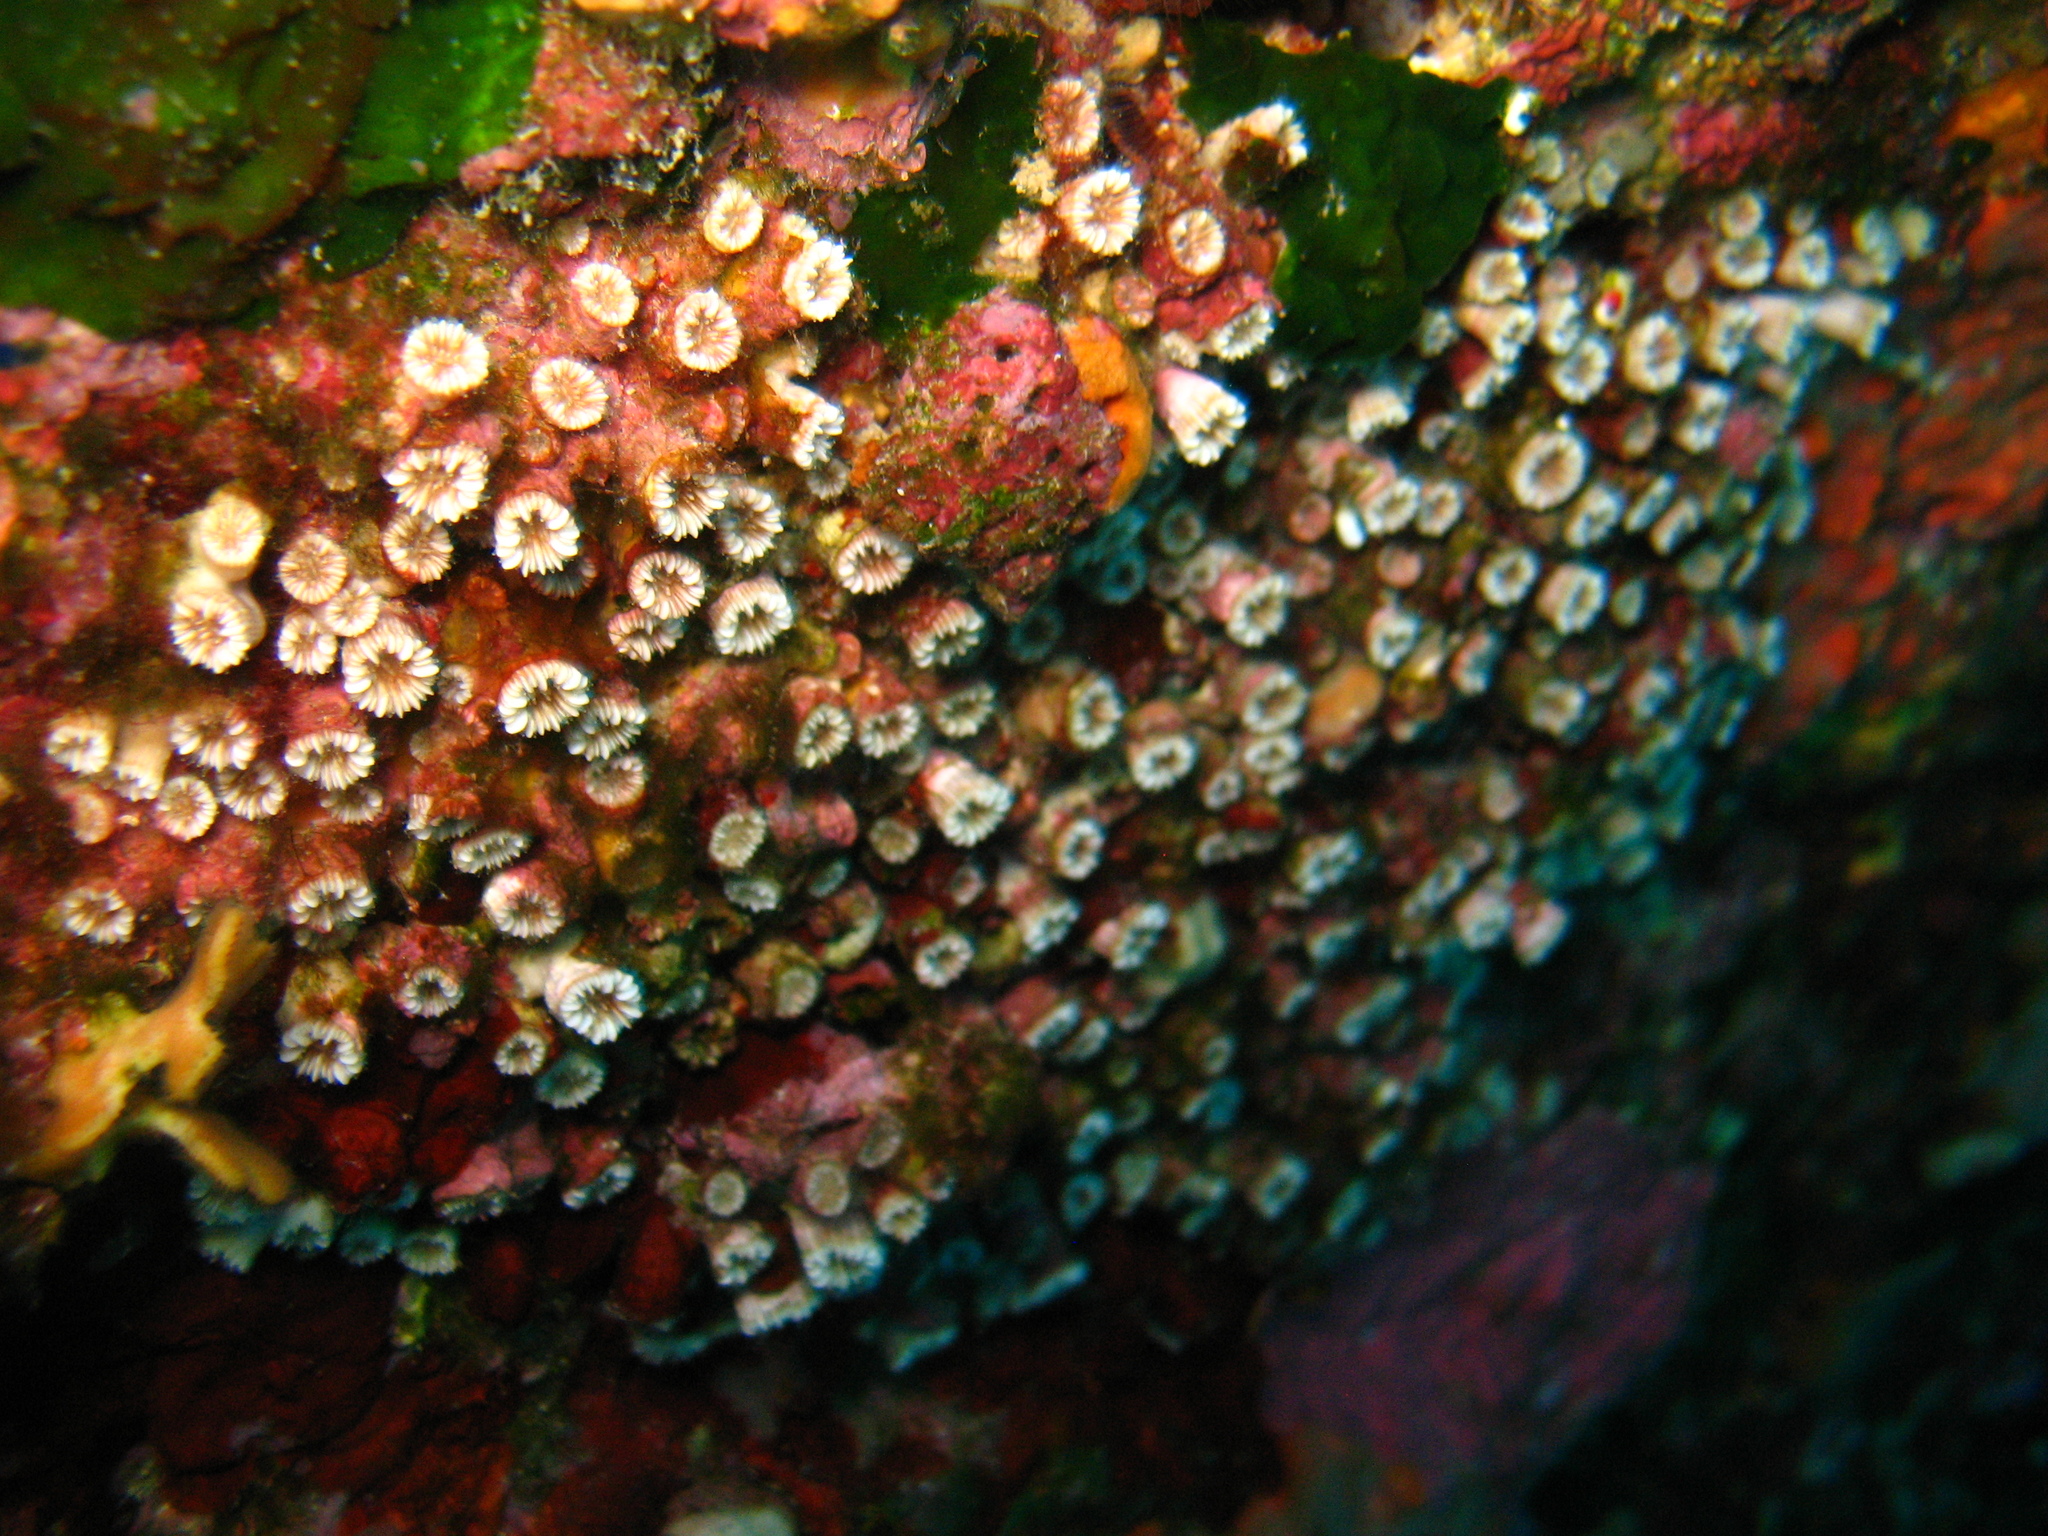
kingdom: Animalia
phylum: Cnidaria
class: Anthozoa
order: Scleractinia
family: Caryophylliidae
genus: Polycyathus
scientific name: Polycyathus muellerae
